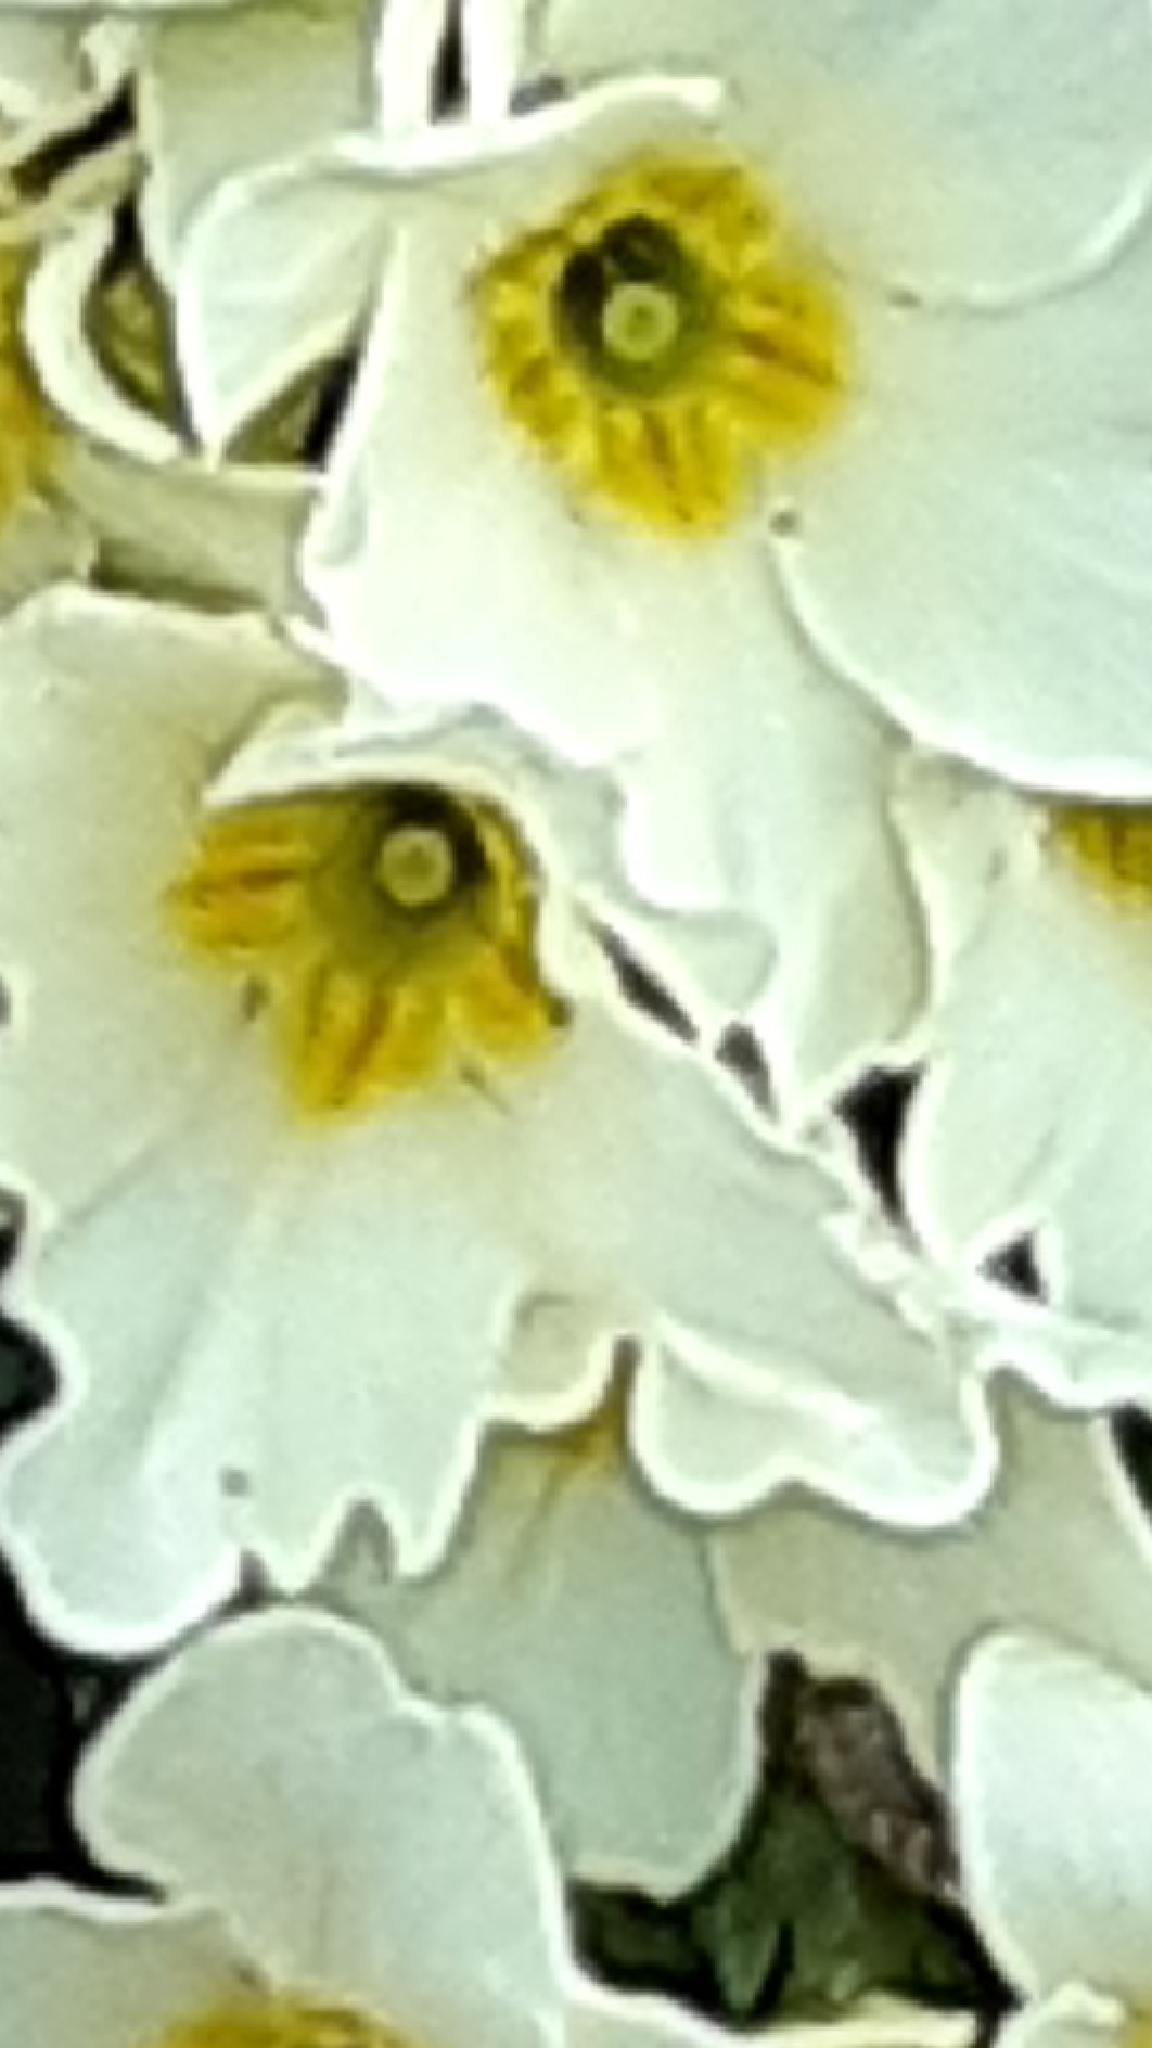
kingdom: Plantae
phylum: Tracheophyta
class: Magnoliopsida
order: Ericales
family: Primulaceae
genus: Primula
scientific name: Primula vulgaris
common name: Primrose
